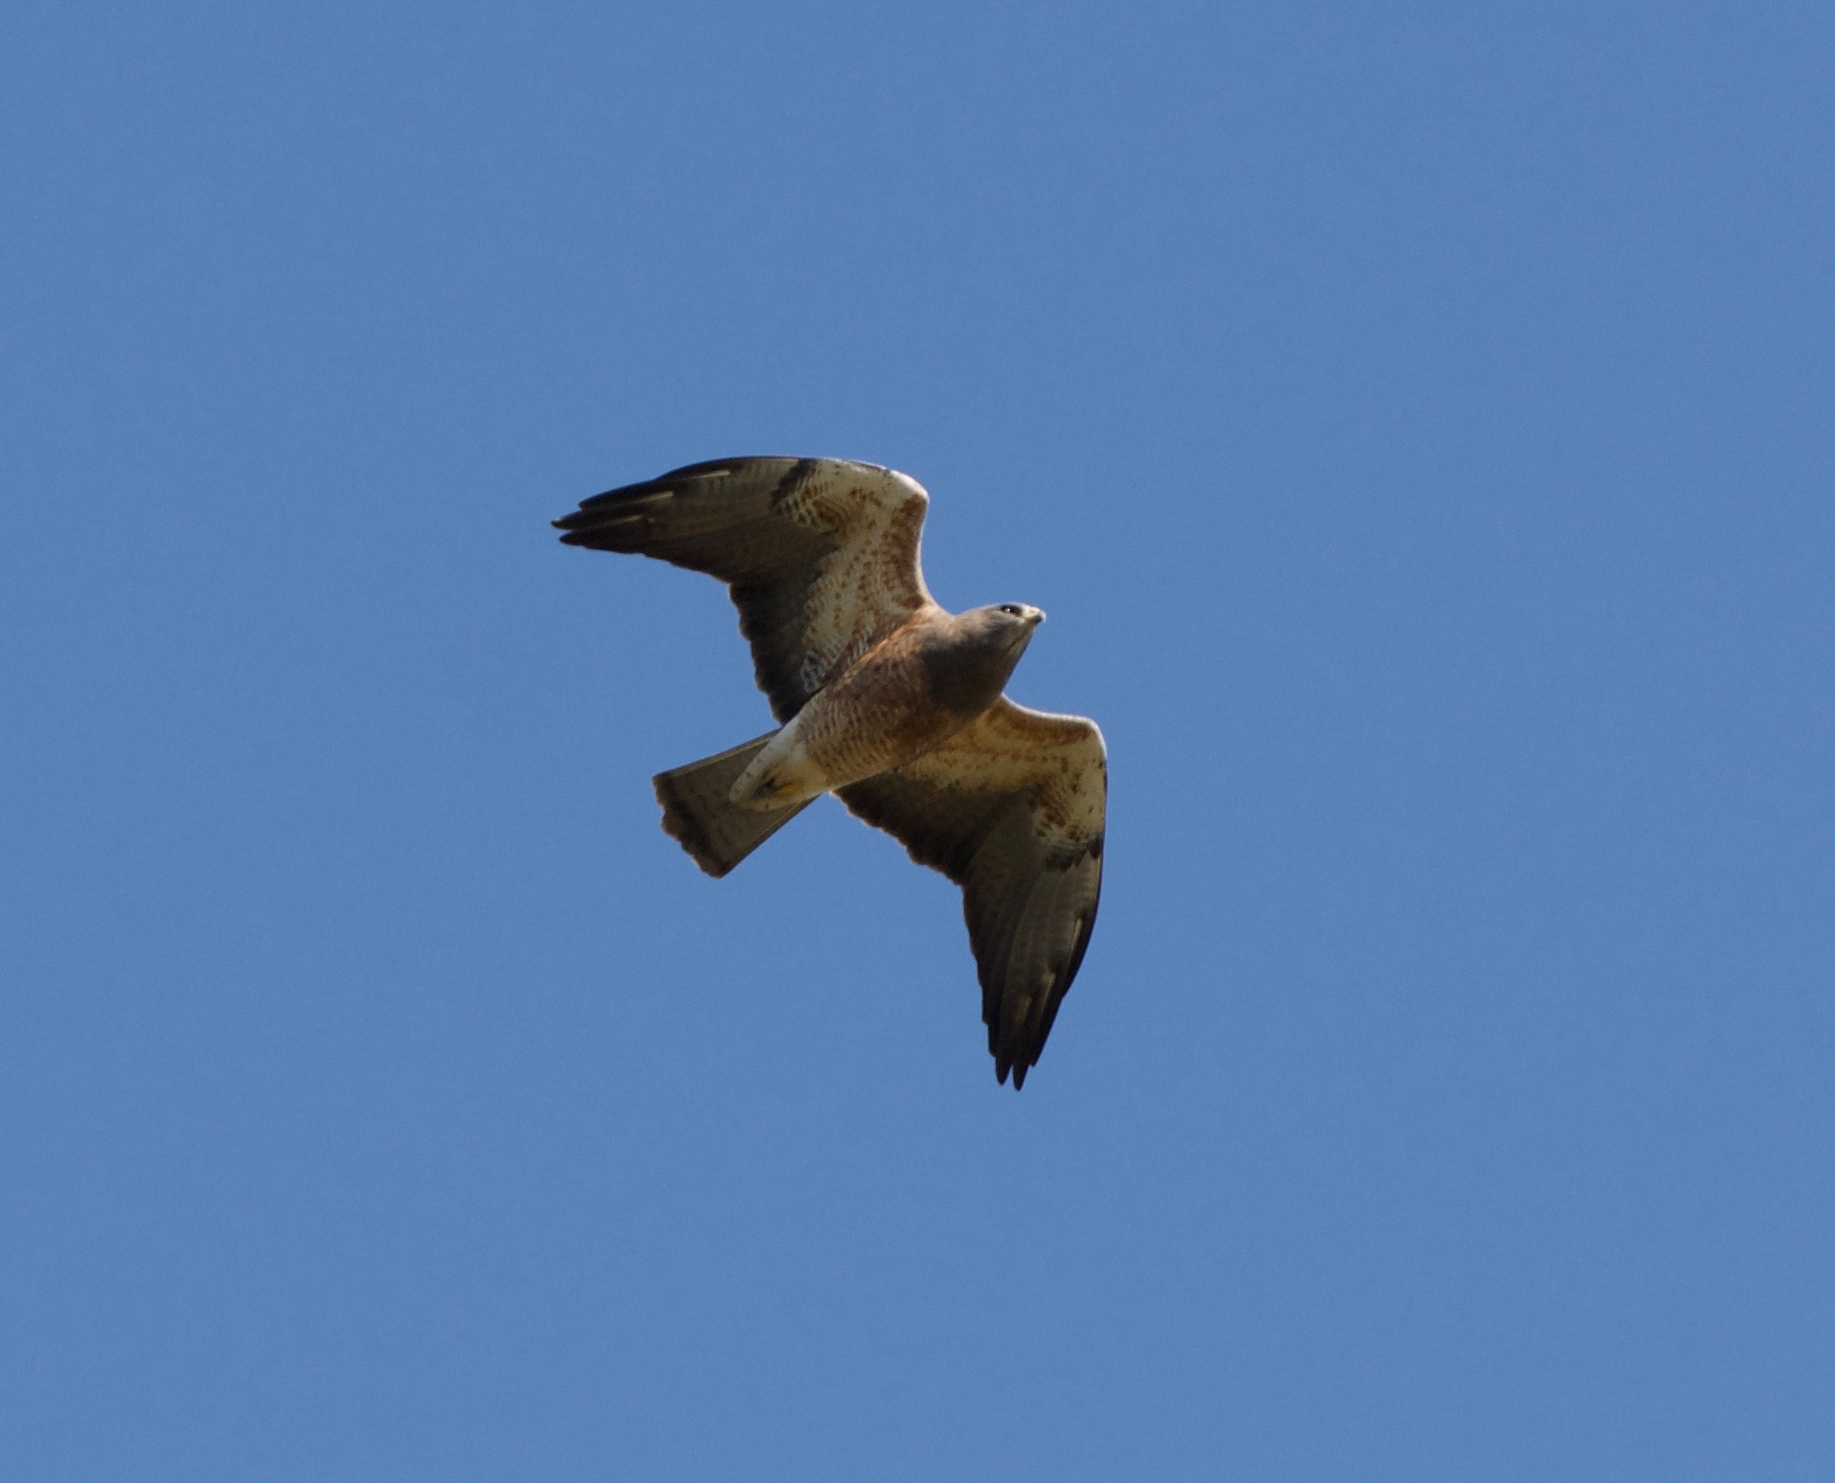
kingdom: Animalia
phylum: Chordata
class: Aves
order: Accipitriformes
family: Accipitridae
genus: Buteo
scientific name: Buteo swainsoni
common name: Swainson's hawk
